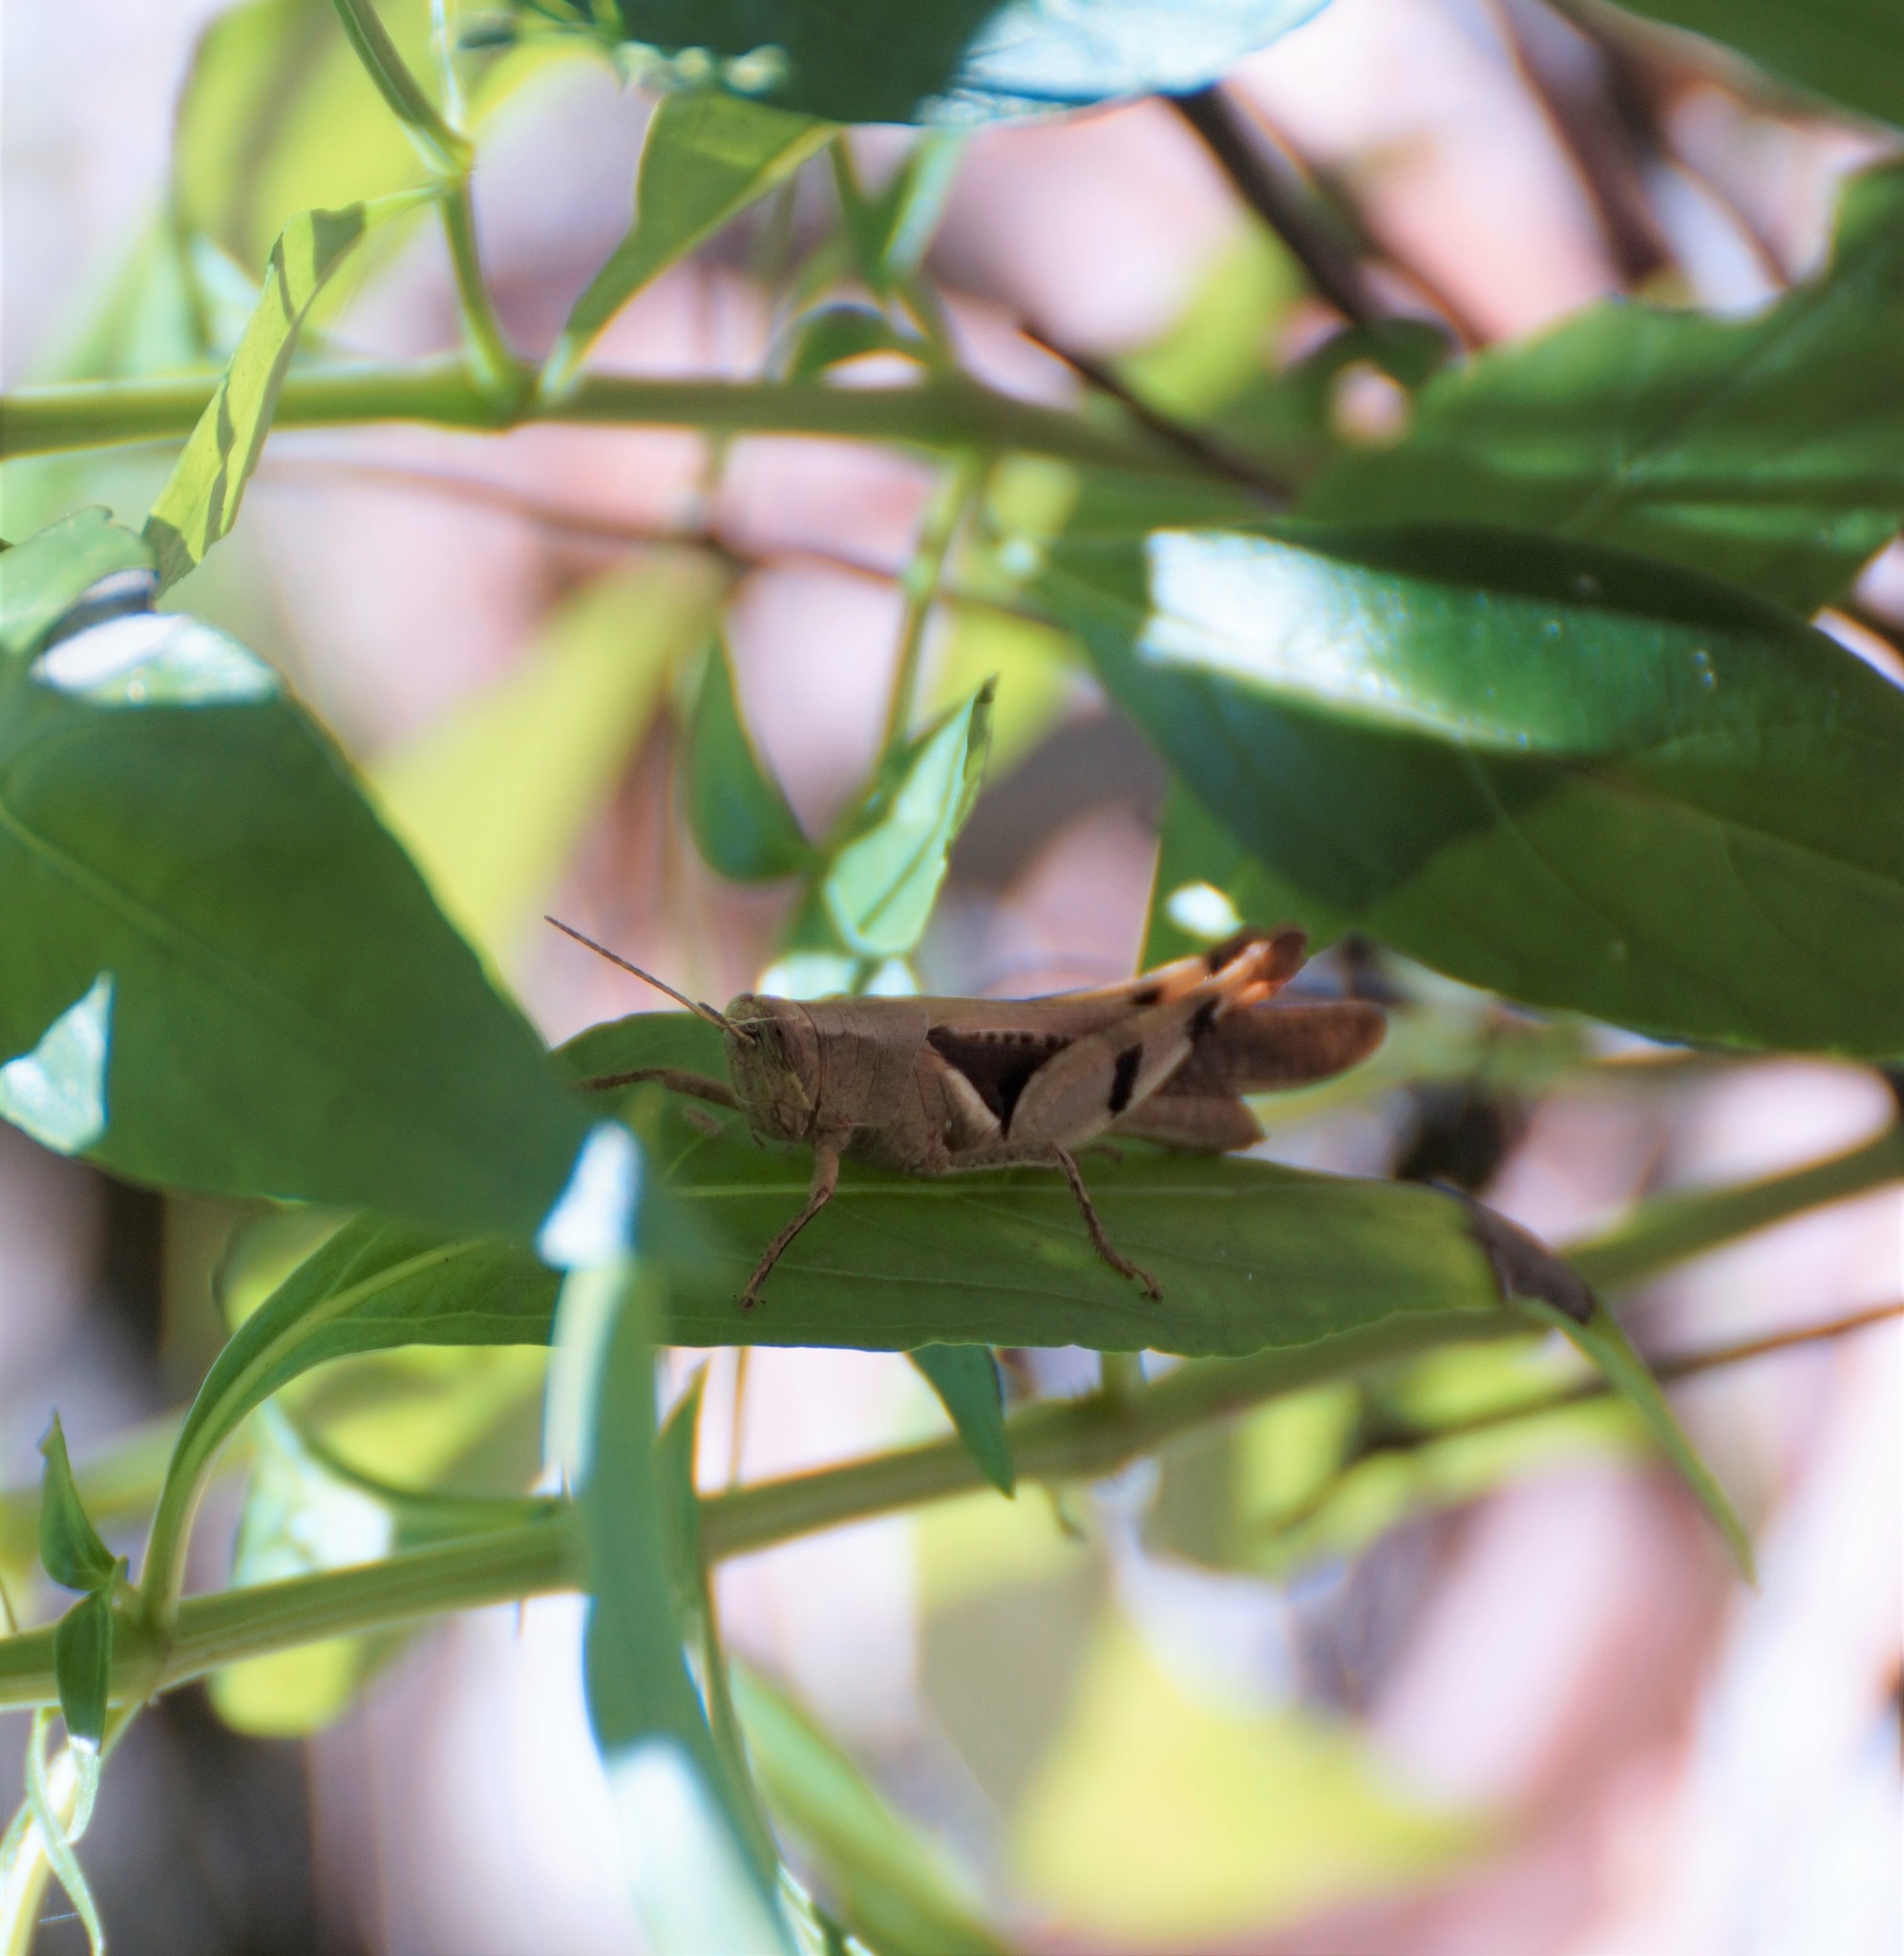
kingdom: Animalia
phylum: Arthropoda
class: Insecta
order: Orthoptera
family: Acrididae
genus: Stenocatantops
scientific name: Stenocatantops angustifrons
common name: Common tropical sharptail
